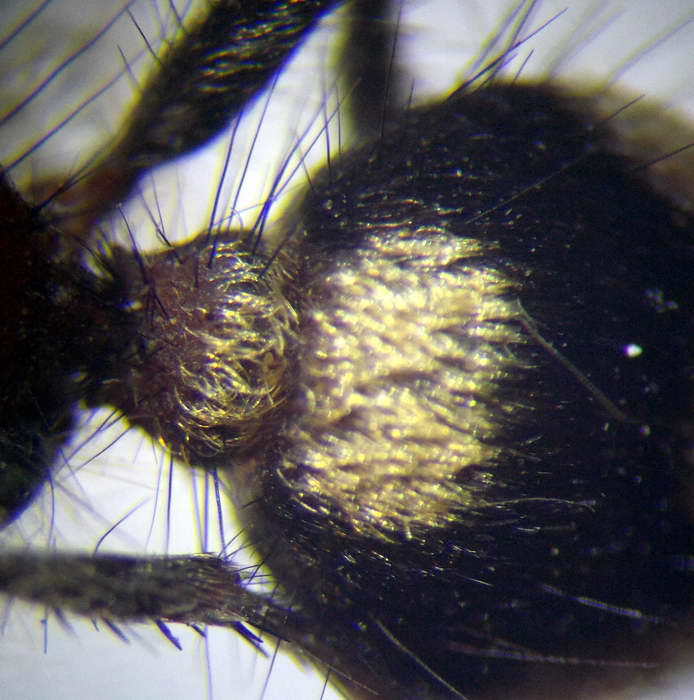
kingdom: Animalia
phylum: Arthropoda
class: Insecta
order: Hymenoptera
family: Mutillidae
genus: Dasylabris
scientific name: Dasylabris regalis
